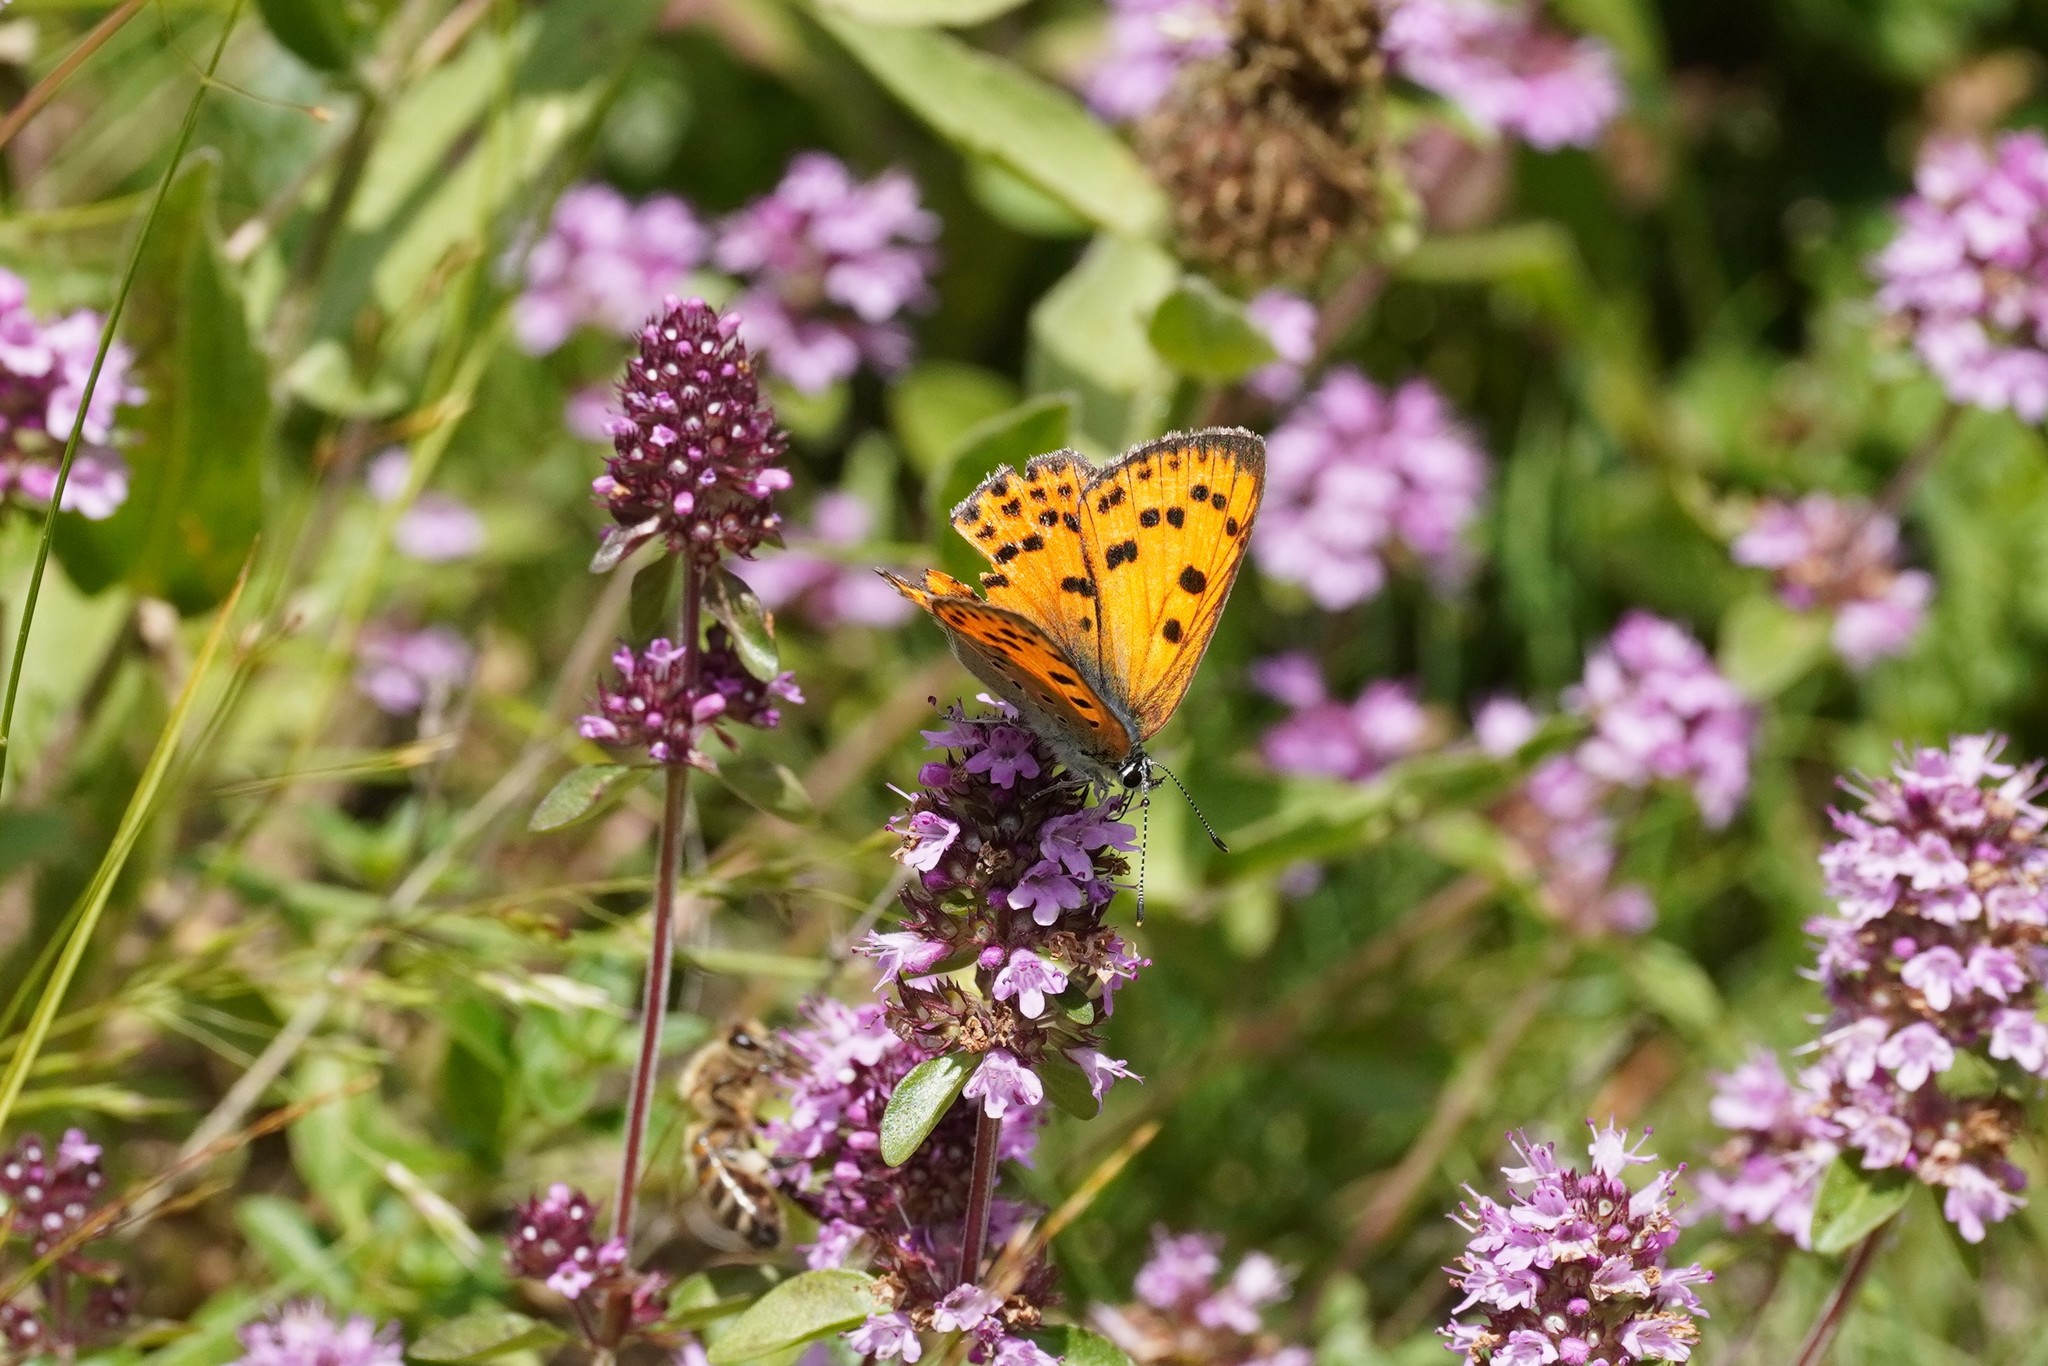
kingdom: Animalia
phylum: Arthropoda
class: Insecta
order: Lepidoptera
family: Lycaenidae
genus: Lycaena
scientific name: Lycaena alciphron
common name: Purple-shot copper
